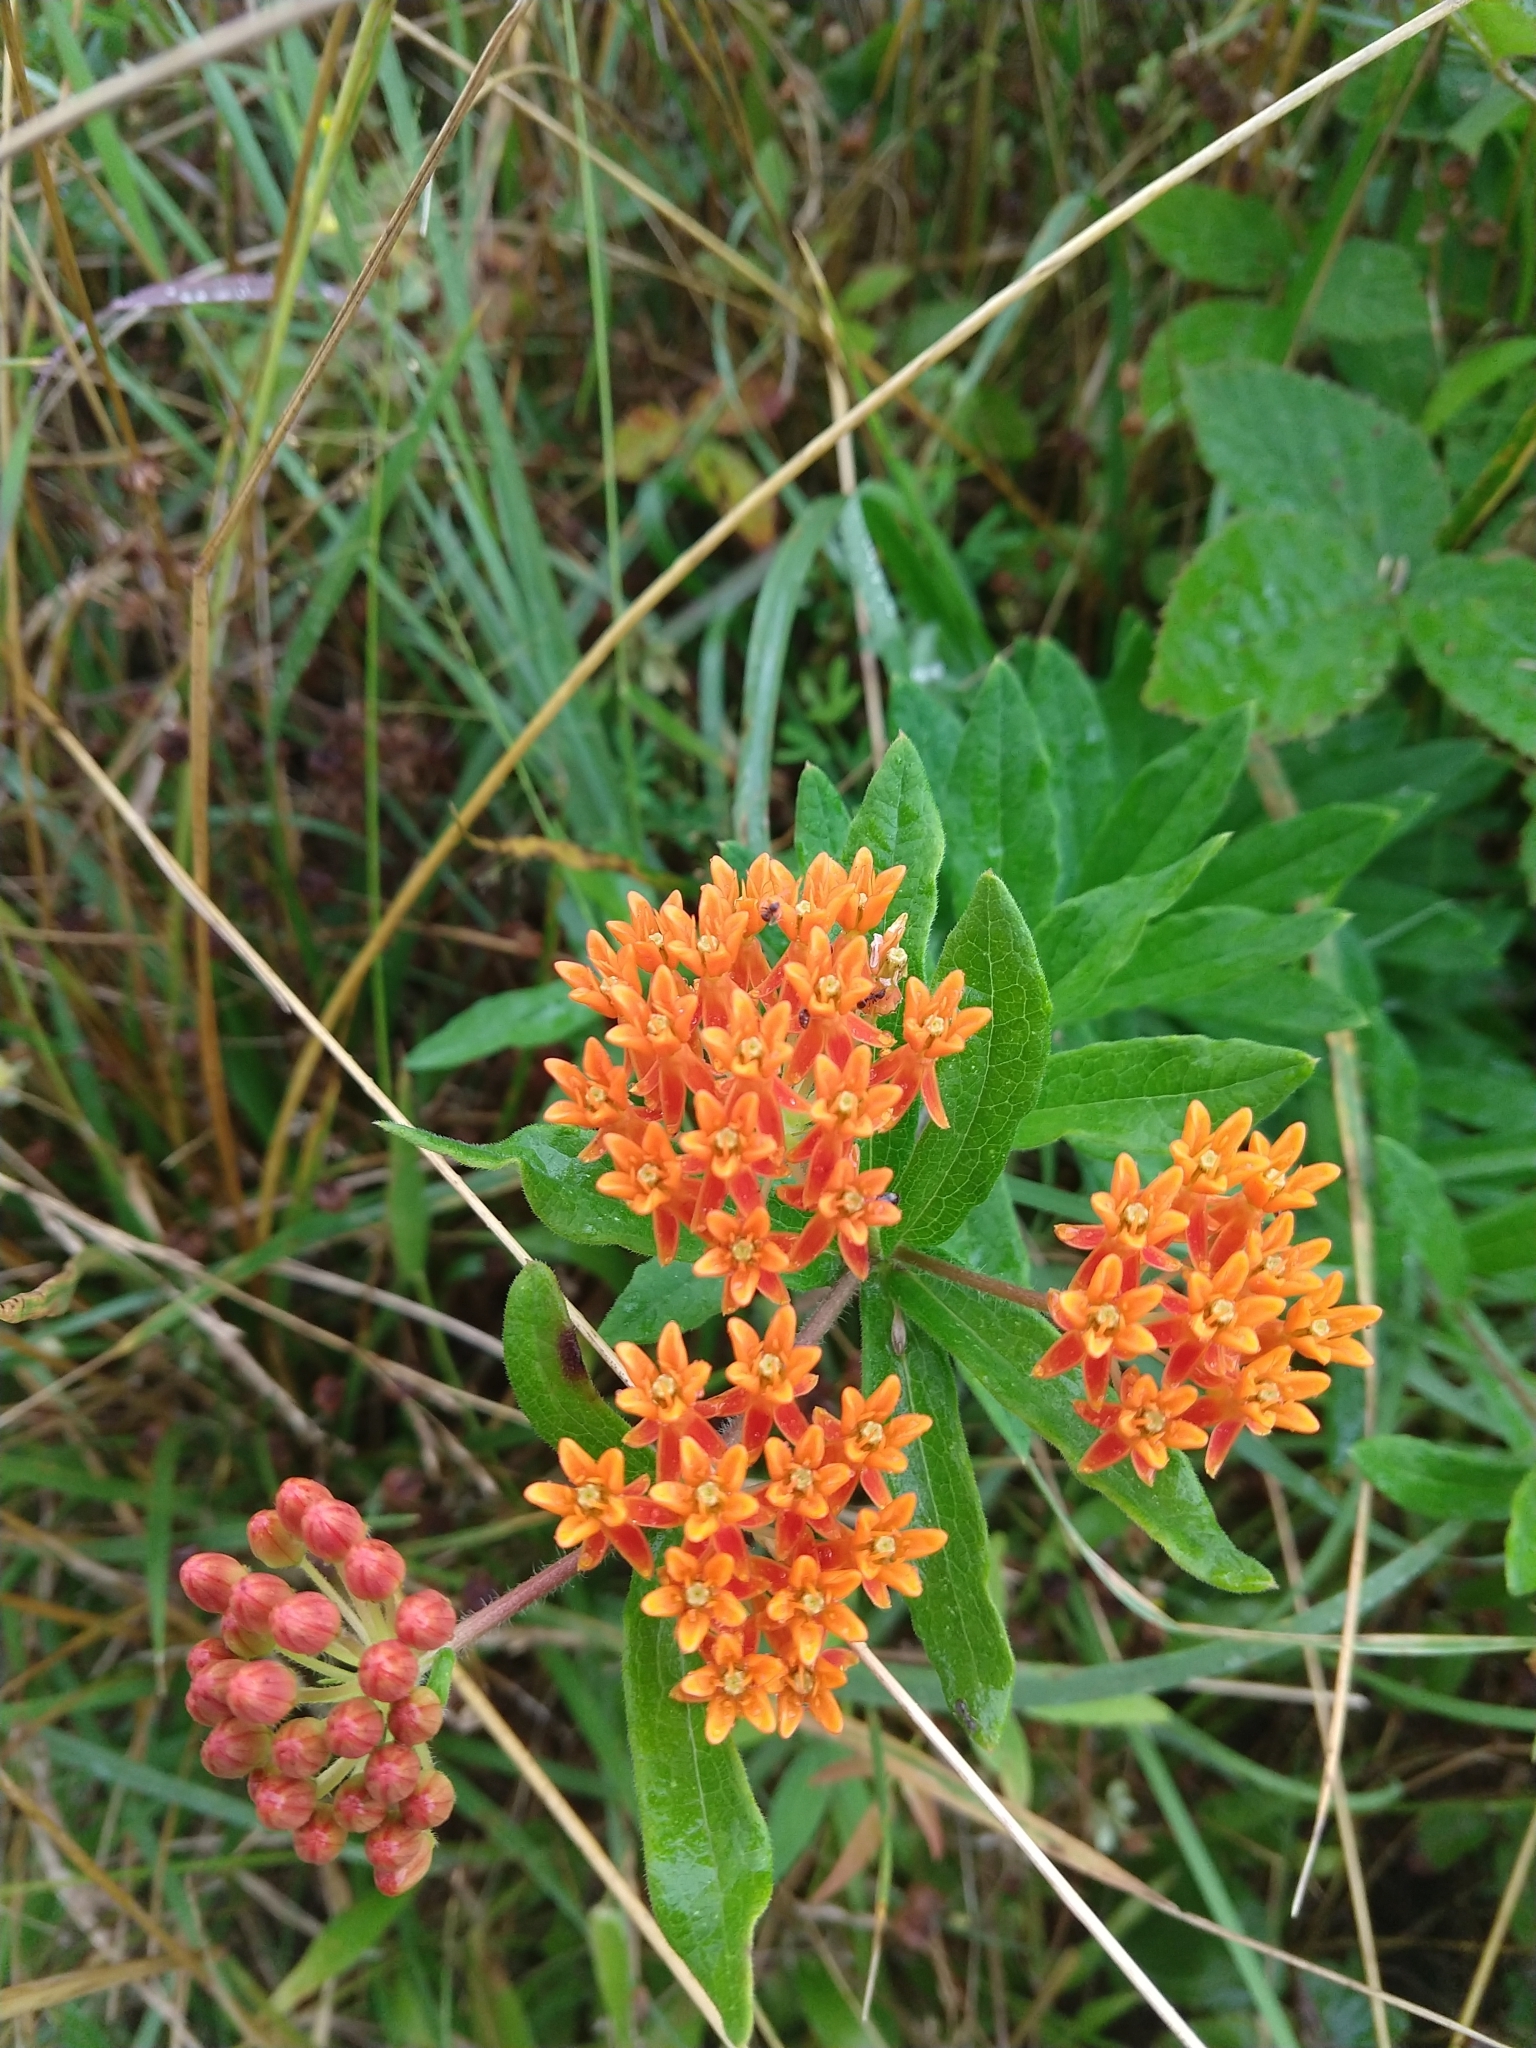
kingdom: Plantae
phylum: Tracheophyta
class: Magnoliopsida
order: Gentianales
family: Apocynaceae
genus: Asclepias
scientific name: Asclepias tuberosa
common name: Butterfly milkweed
